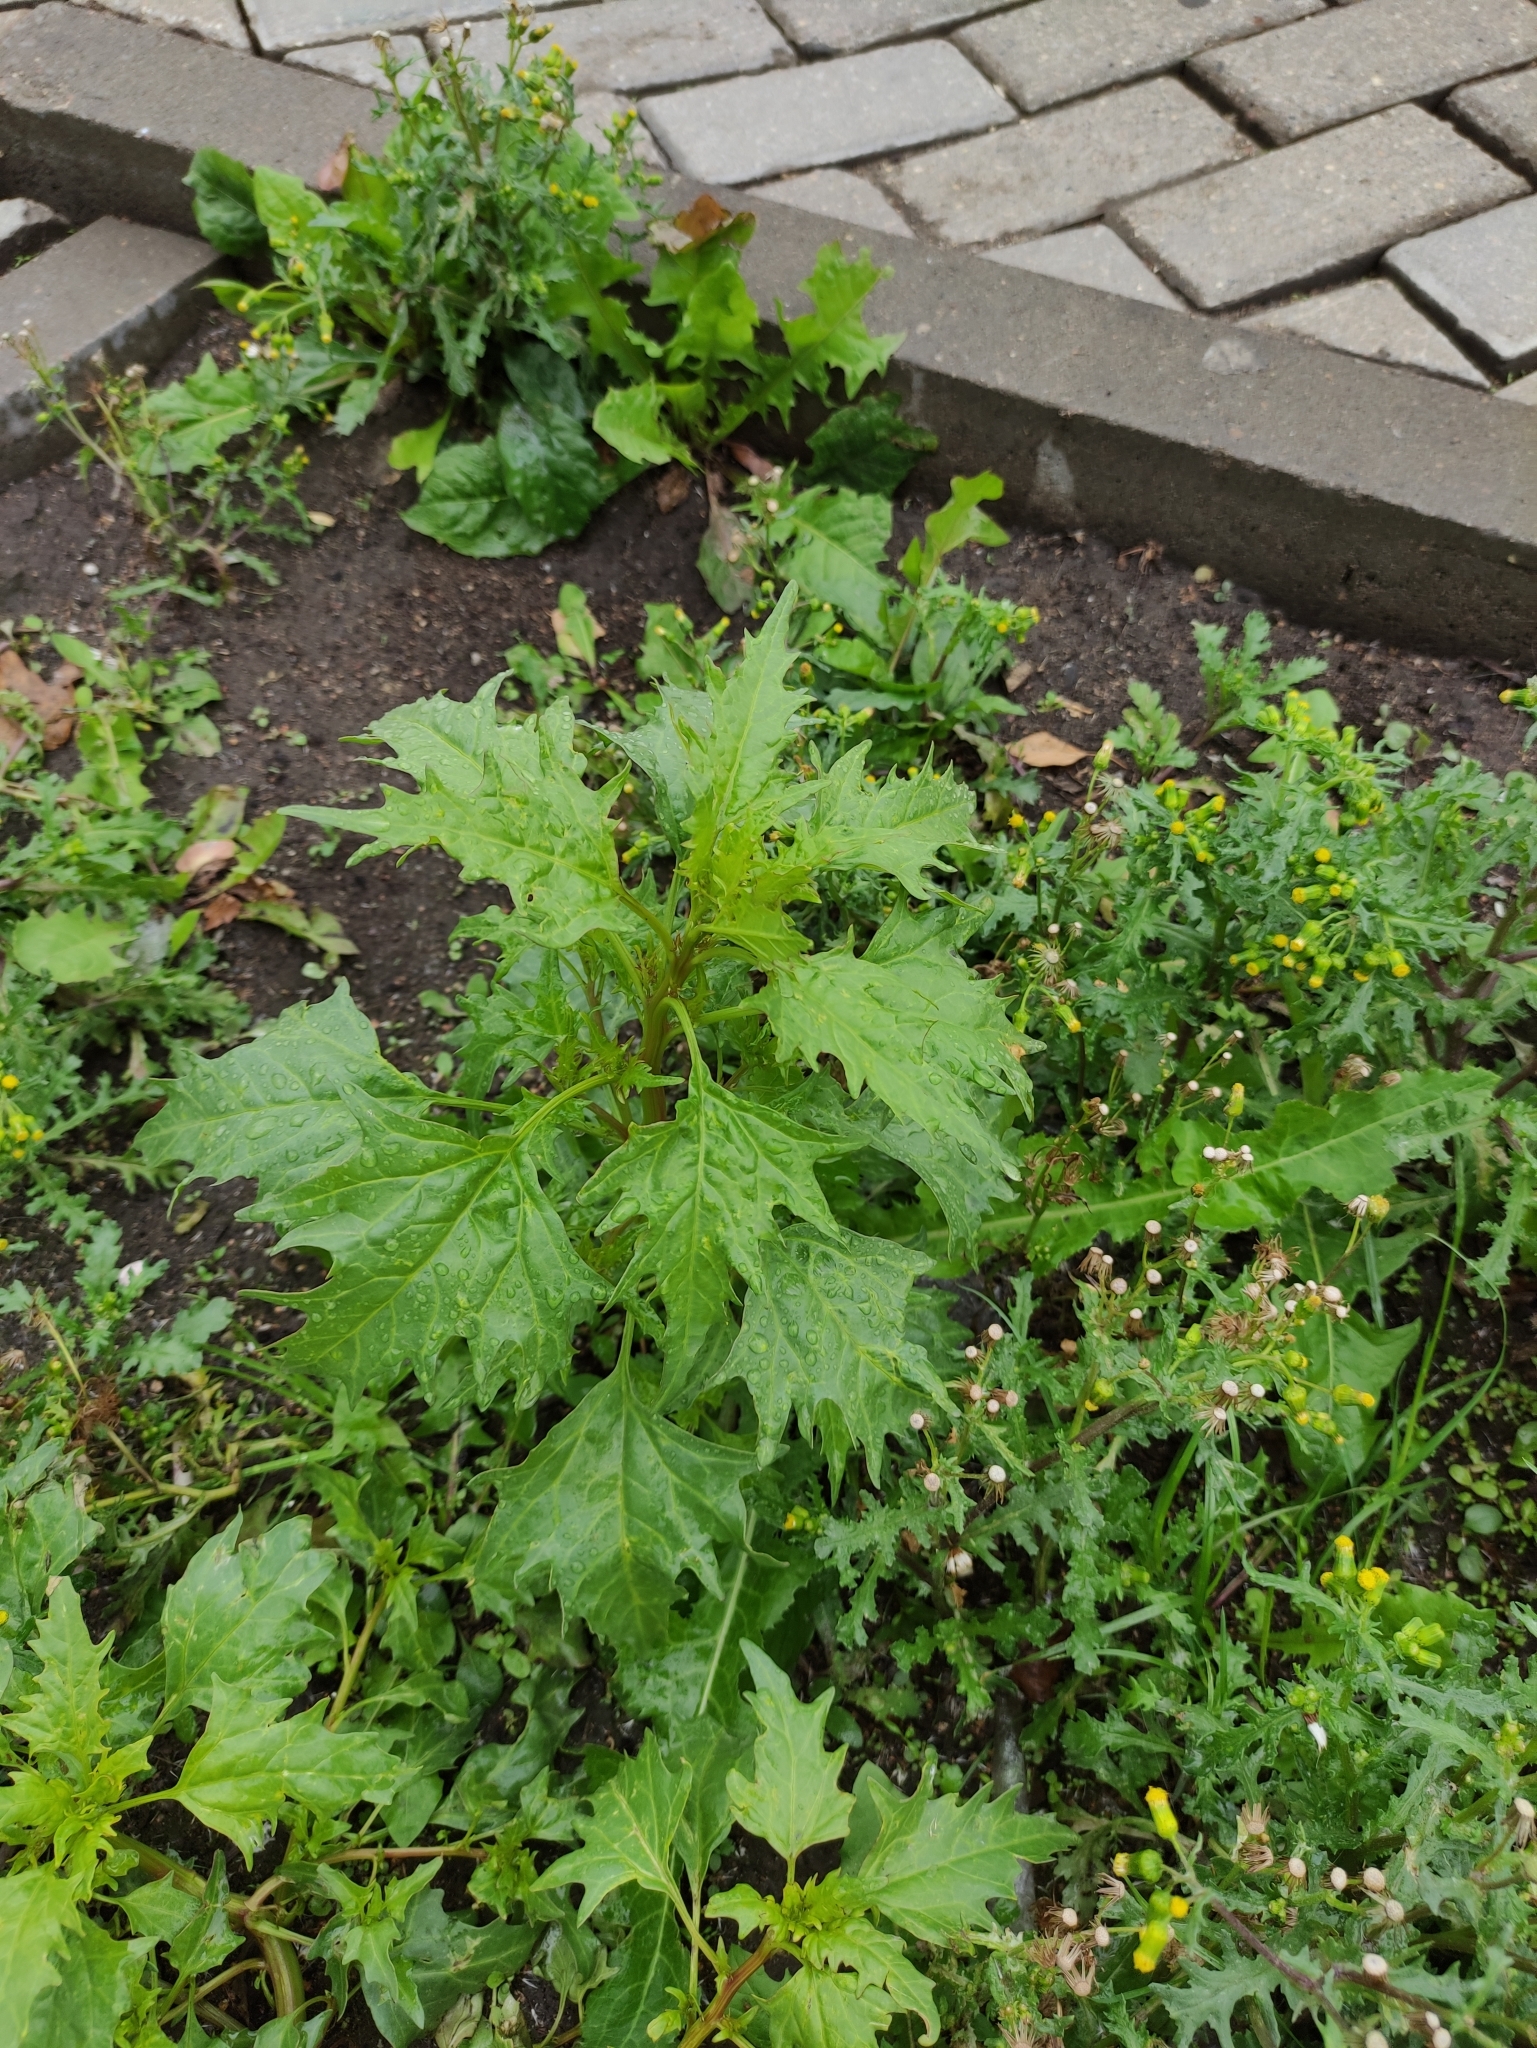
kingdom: Plantae
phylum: Tracheophyta
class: Magnoliopsida
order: Caryophyllales
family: Amaranthaceae
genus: Oxybasis
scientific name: Oxybasis rubra
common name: Red goosefoot
